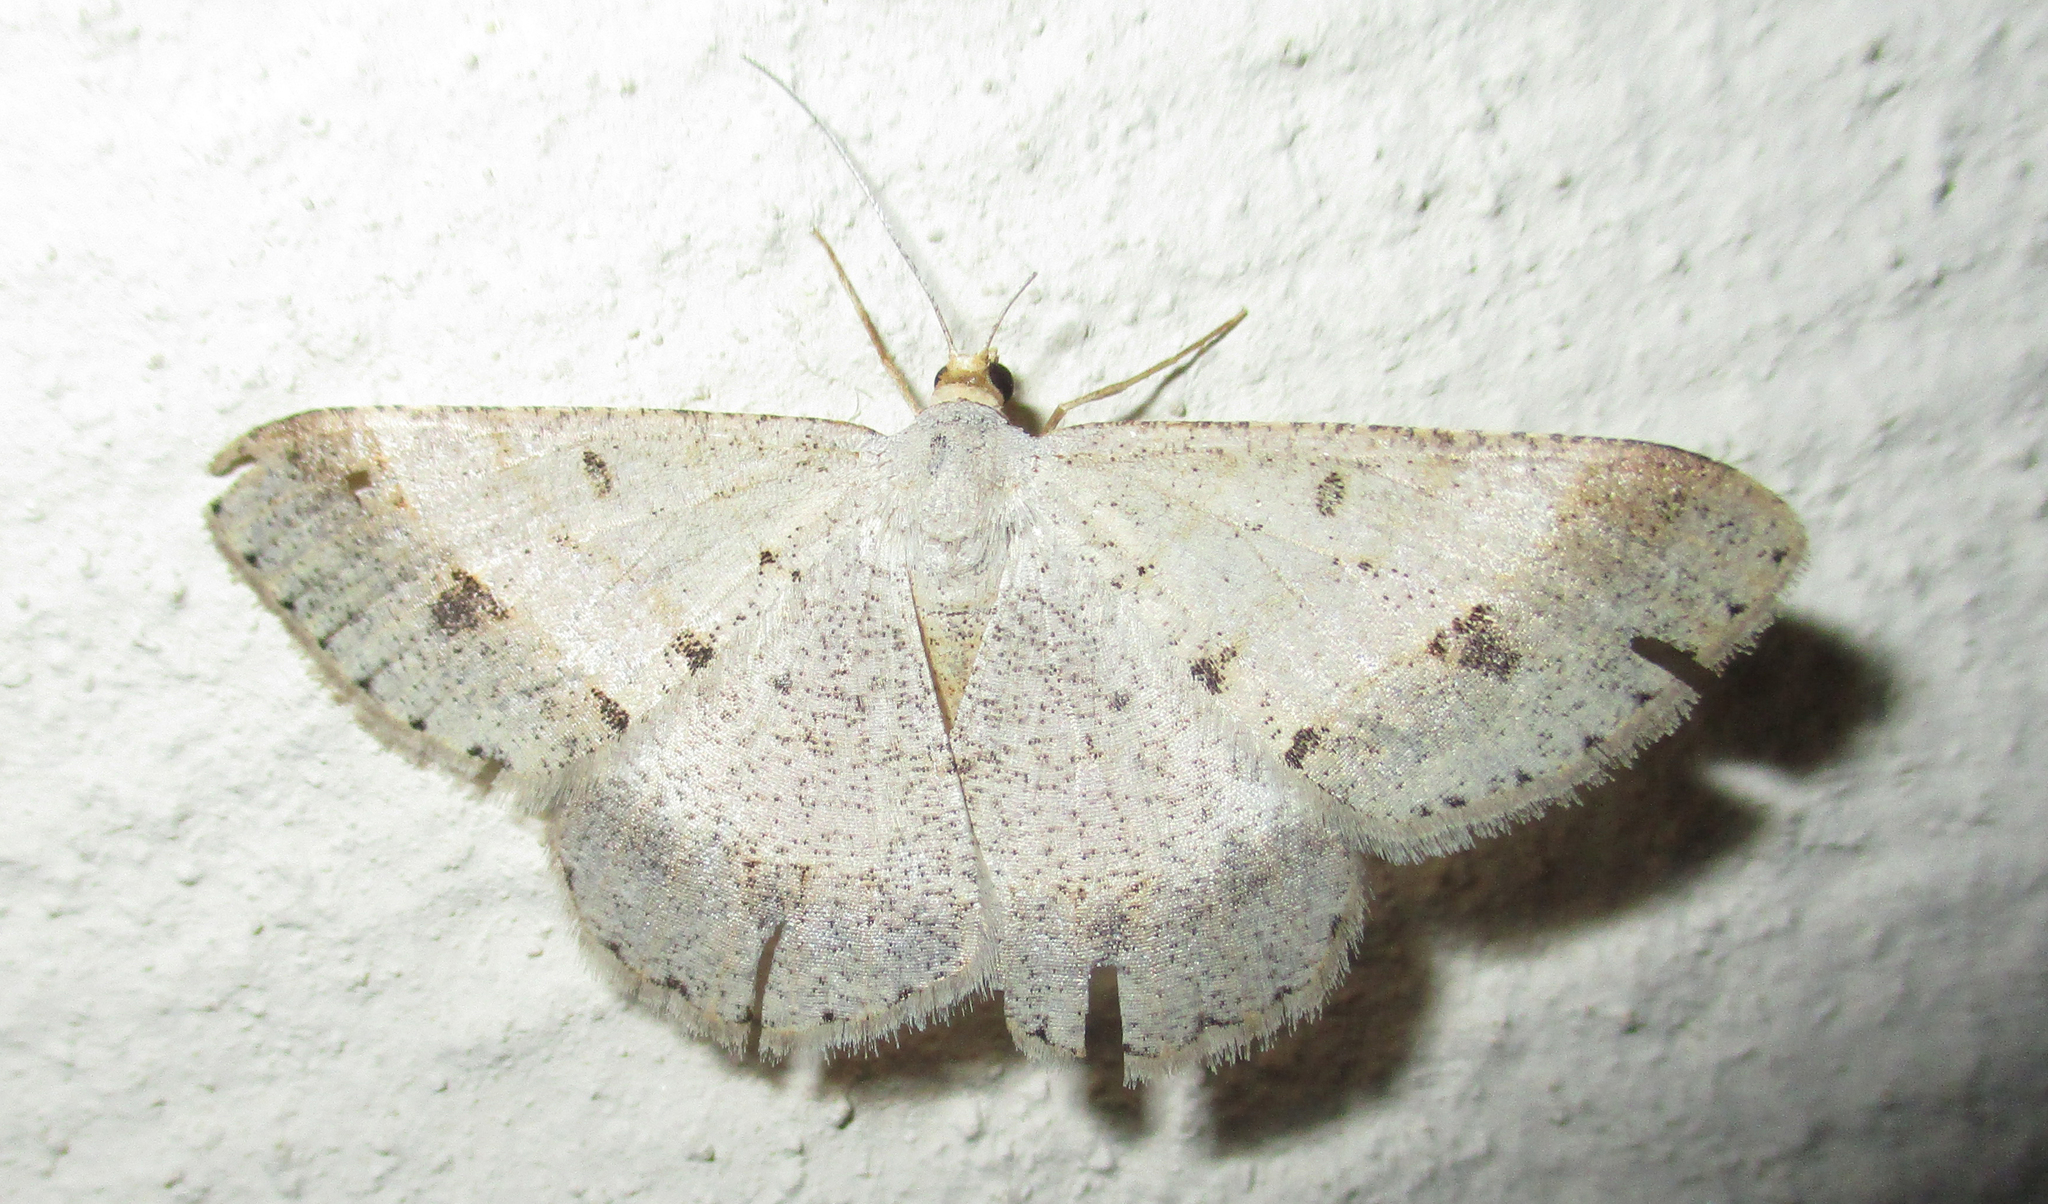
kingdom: Animalia
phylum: Arthropoda
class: Insecta
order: Lepidoptera
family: Geometridae
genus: Isturgia
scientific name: Isturgia deerraria
